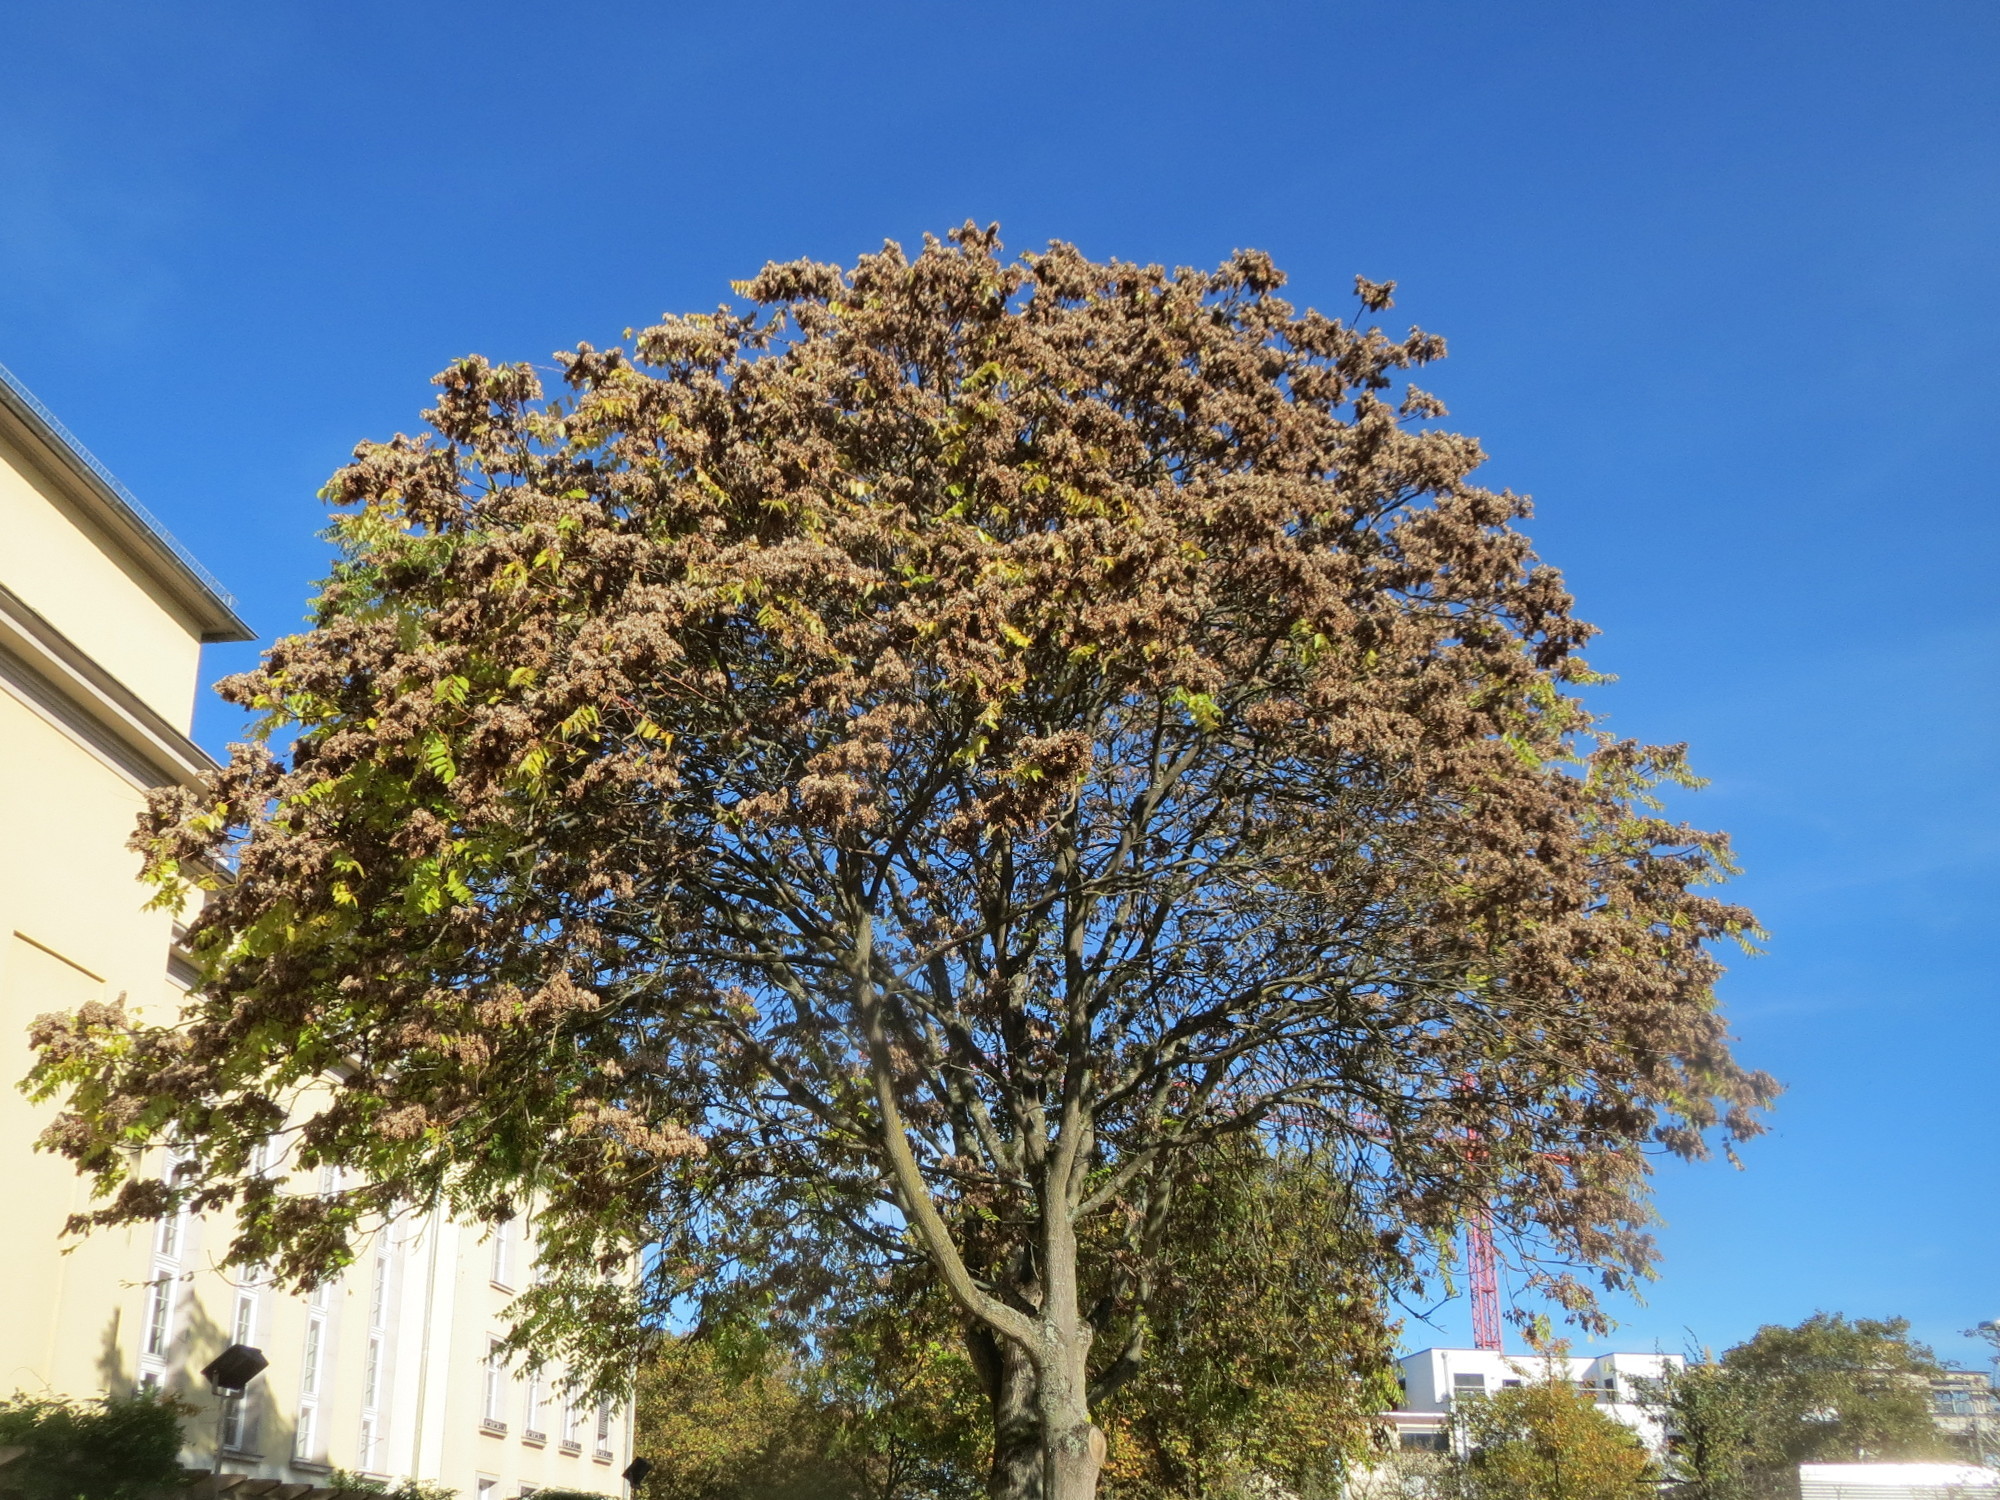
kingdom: Plantae
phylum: Tracheophyta
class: Magnoliopsida
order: Sapindales
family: Simaroubaceae
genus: Ailanthus
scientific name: Ailanthus altissima
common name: Tree-of-heaven
